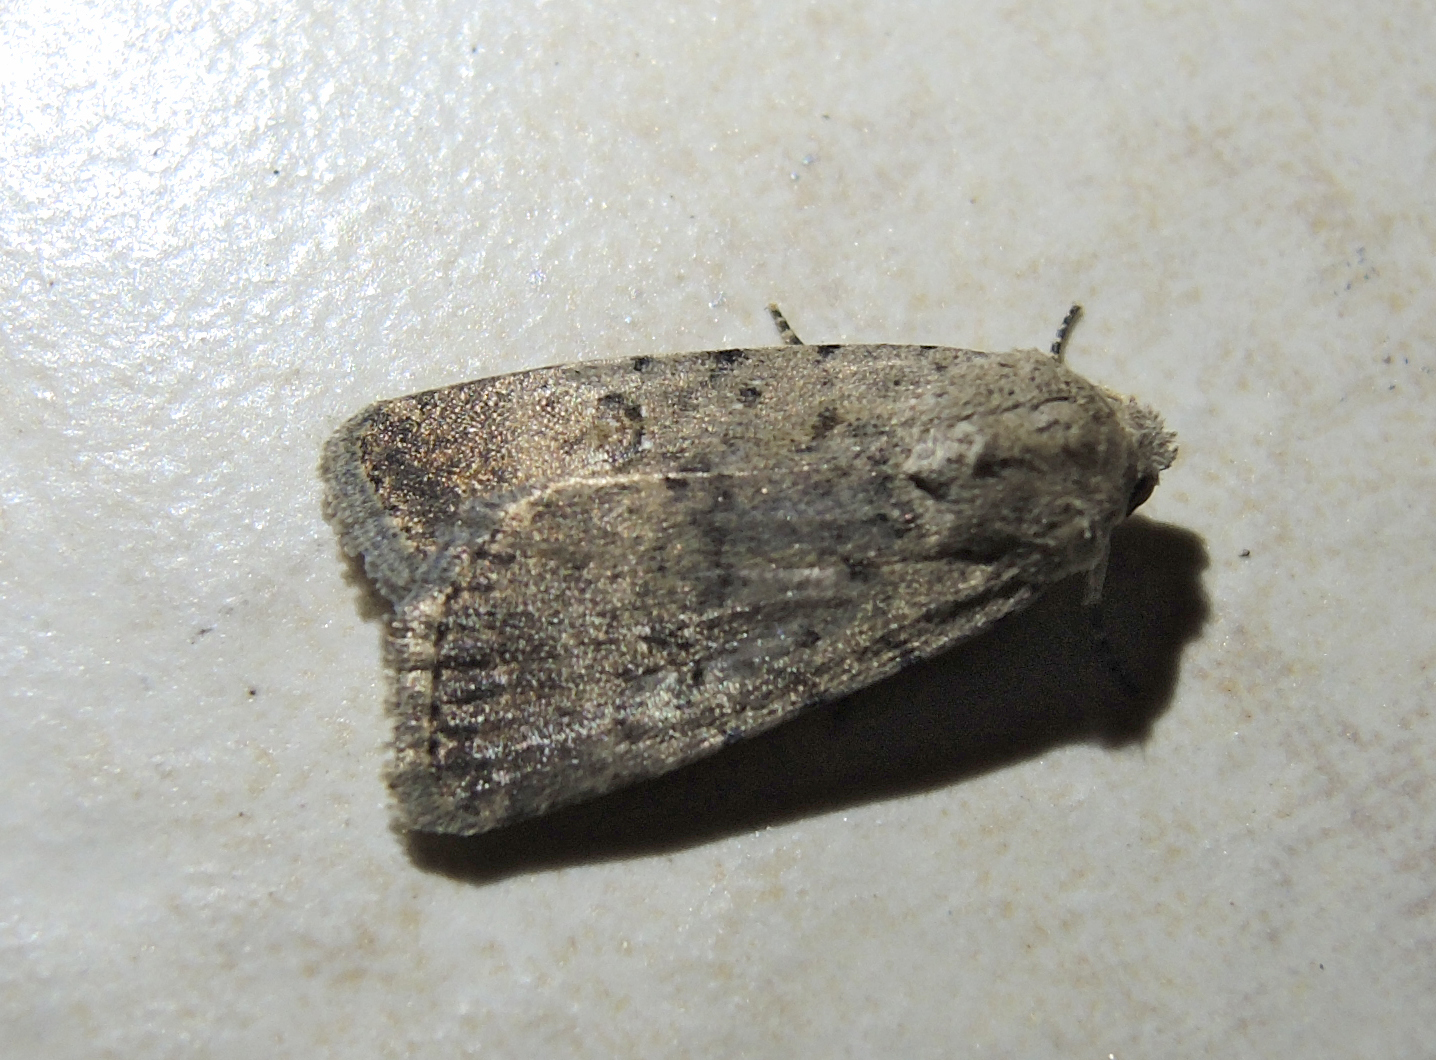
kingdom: Animalia
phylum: Arthropoda
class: Insecta
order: Lepidoptera
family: Noctuidae
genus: Caradrina
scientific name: Caradrina clavipalpis
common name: Pale mottled willow
